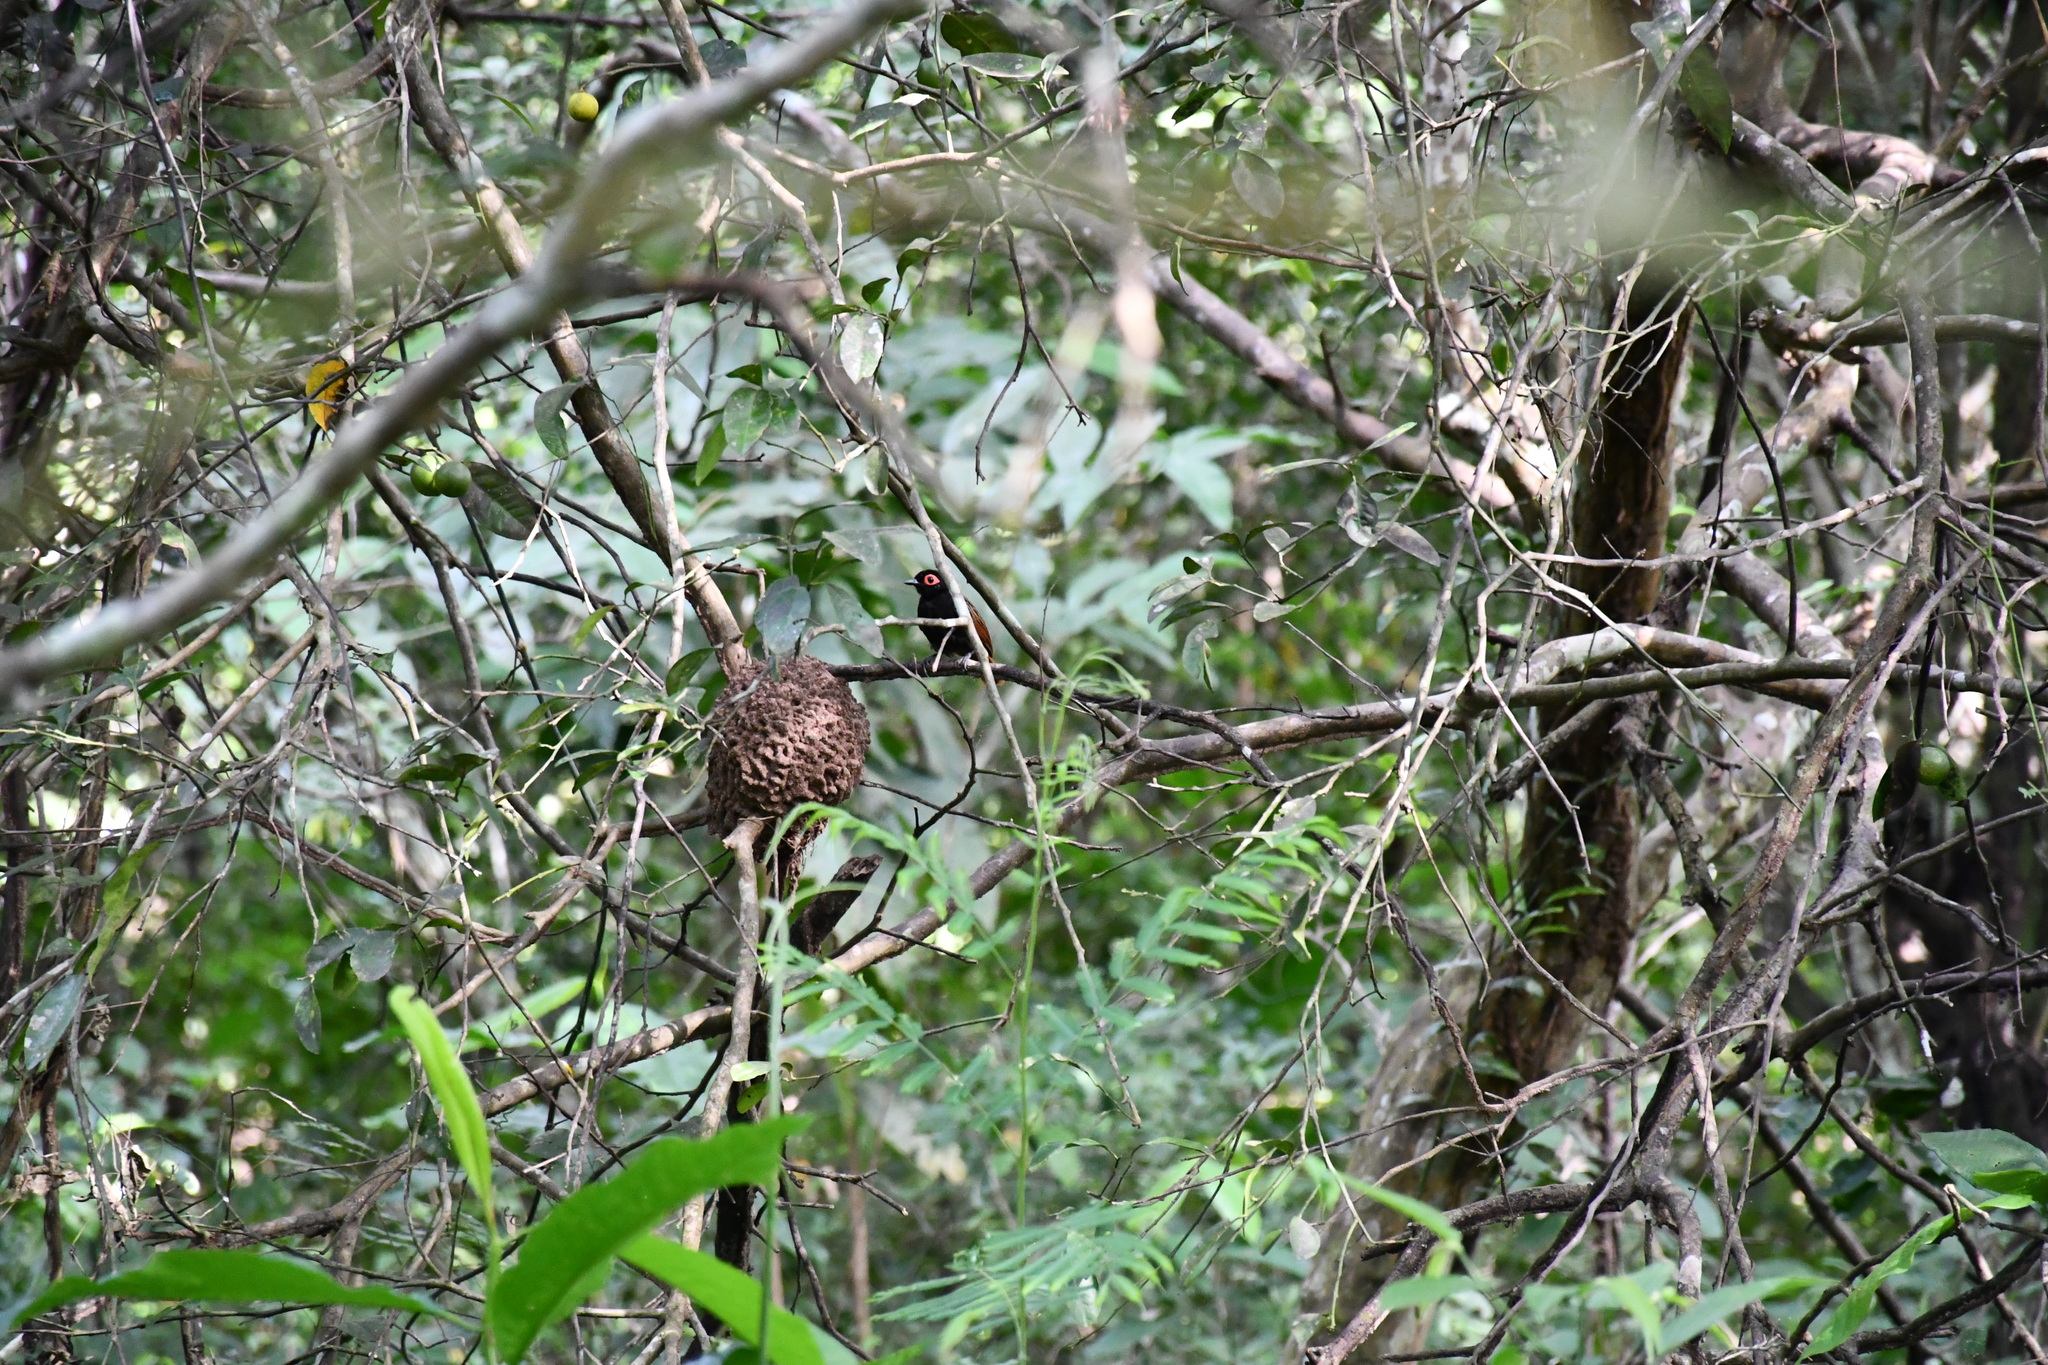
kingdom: Animalia
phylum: Chordata
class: Aves
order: Passeriformes
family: Thamnophilidae
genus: Phlegopsis
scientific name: Phlegopsis nigromaculata
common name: Black-spotted bare-eye
